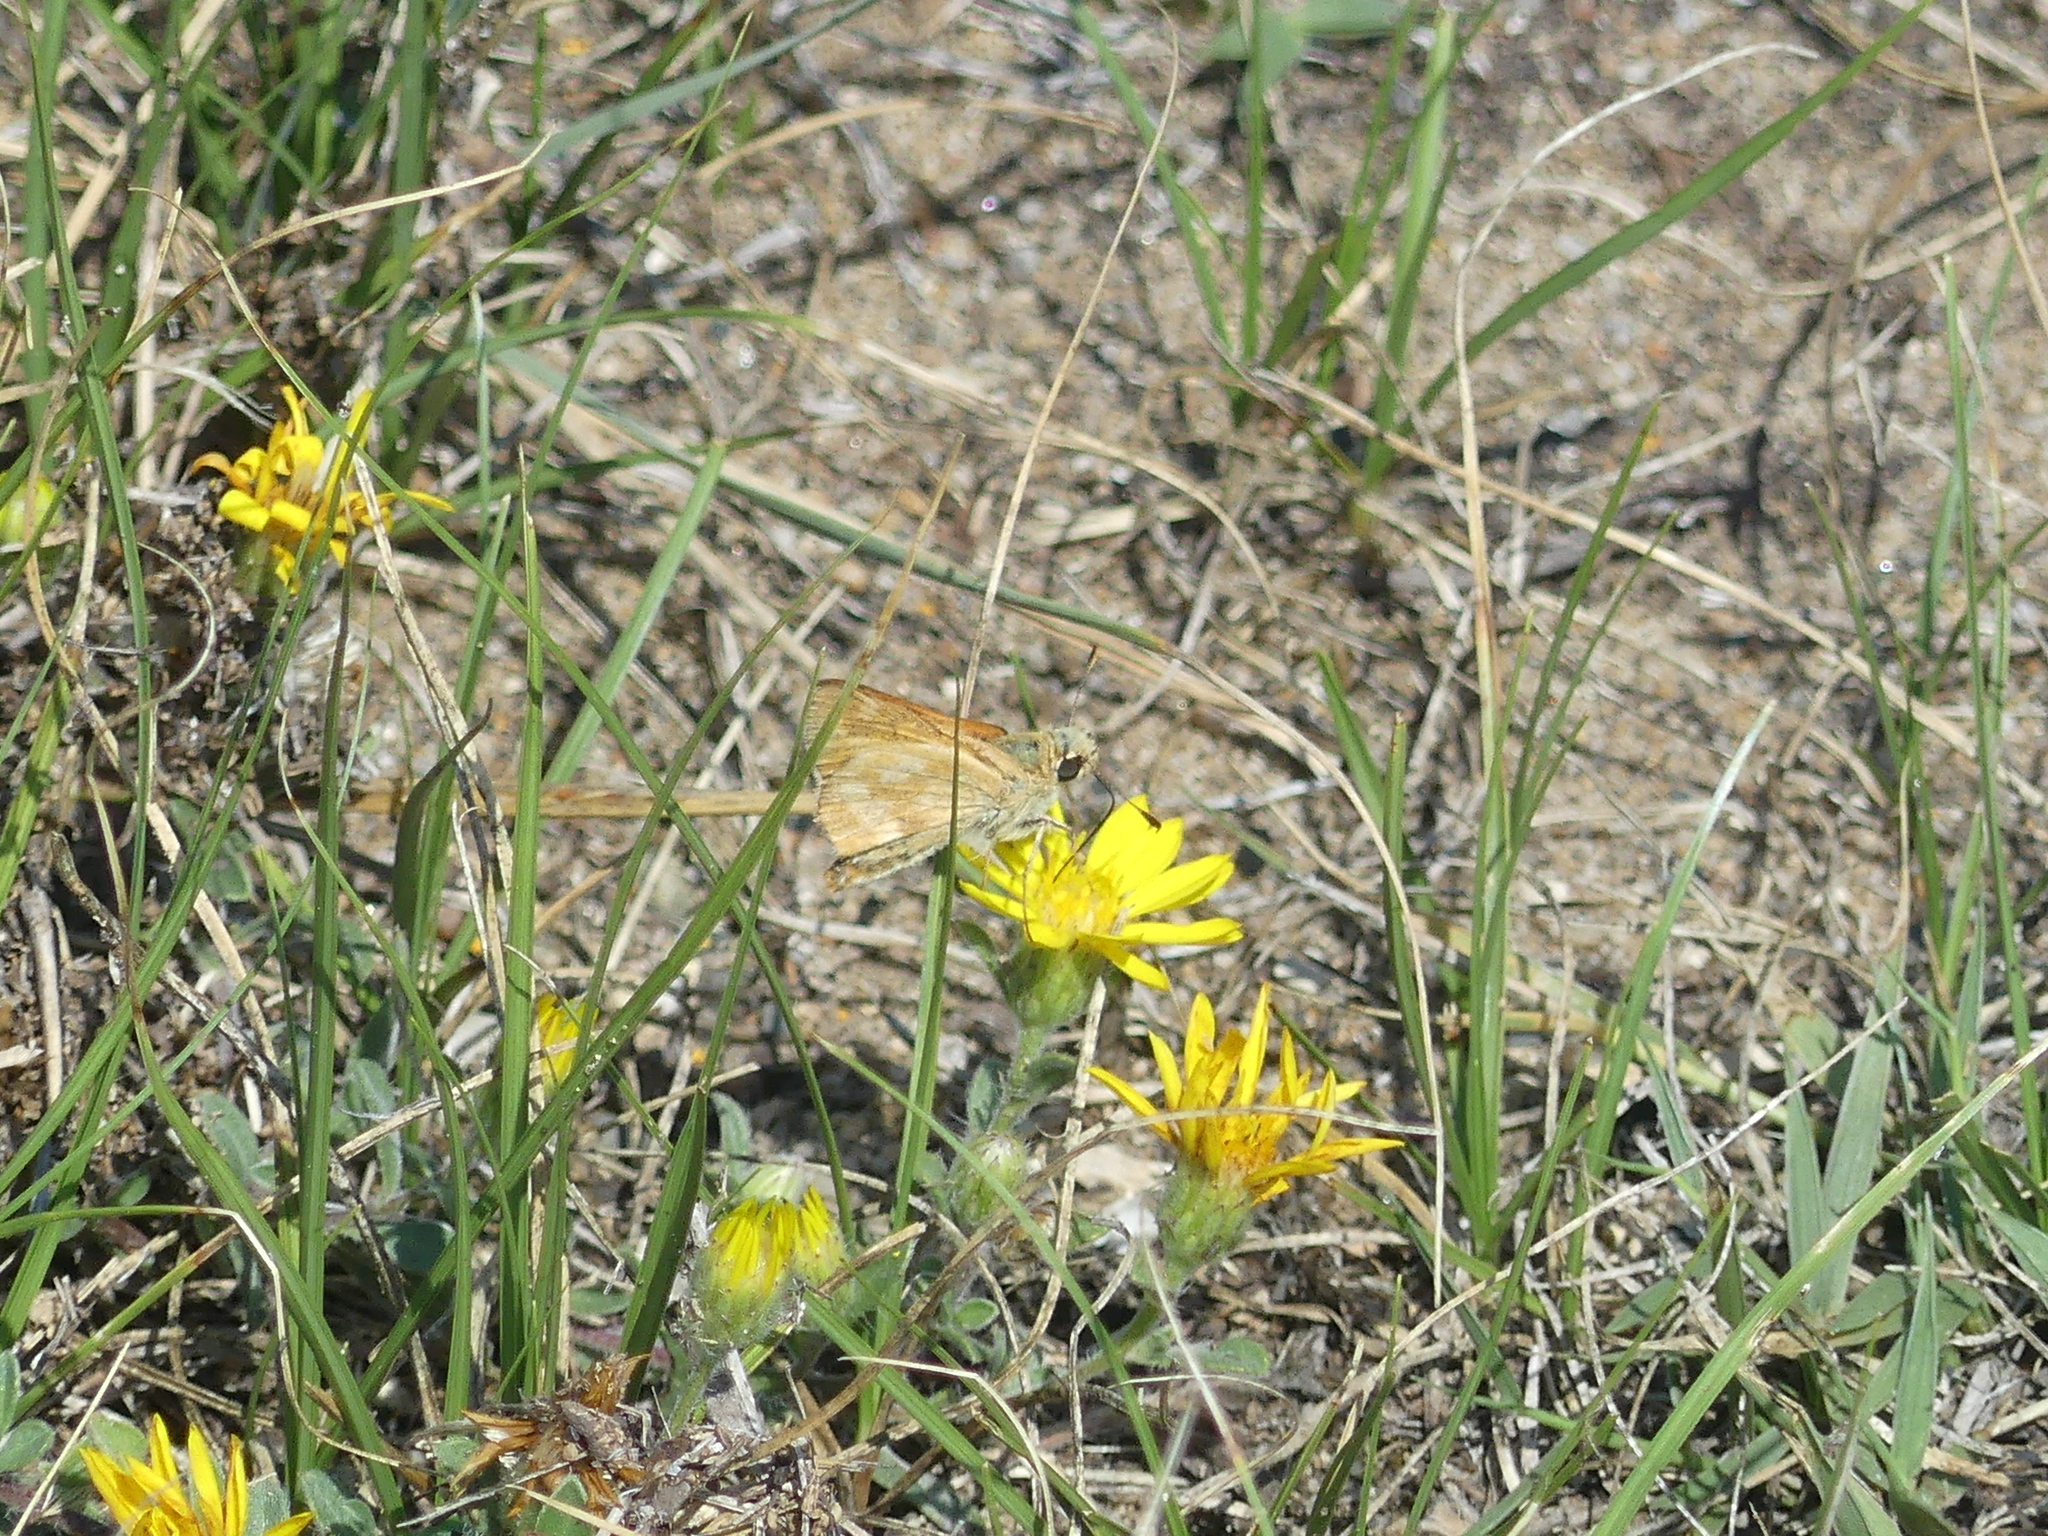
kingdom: Animalia
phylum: Arthropoda
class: Insecta
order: Lepidoptera
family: Hesperiidae
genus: Ochlodes
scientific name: Ochlodes sylvanoides
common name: Woodland skipper
